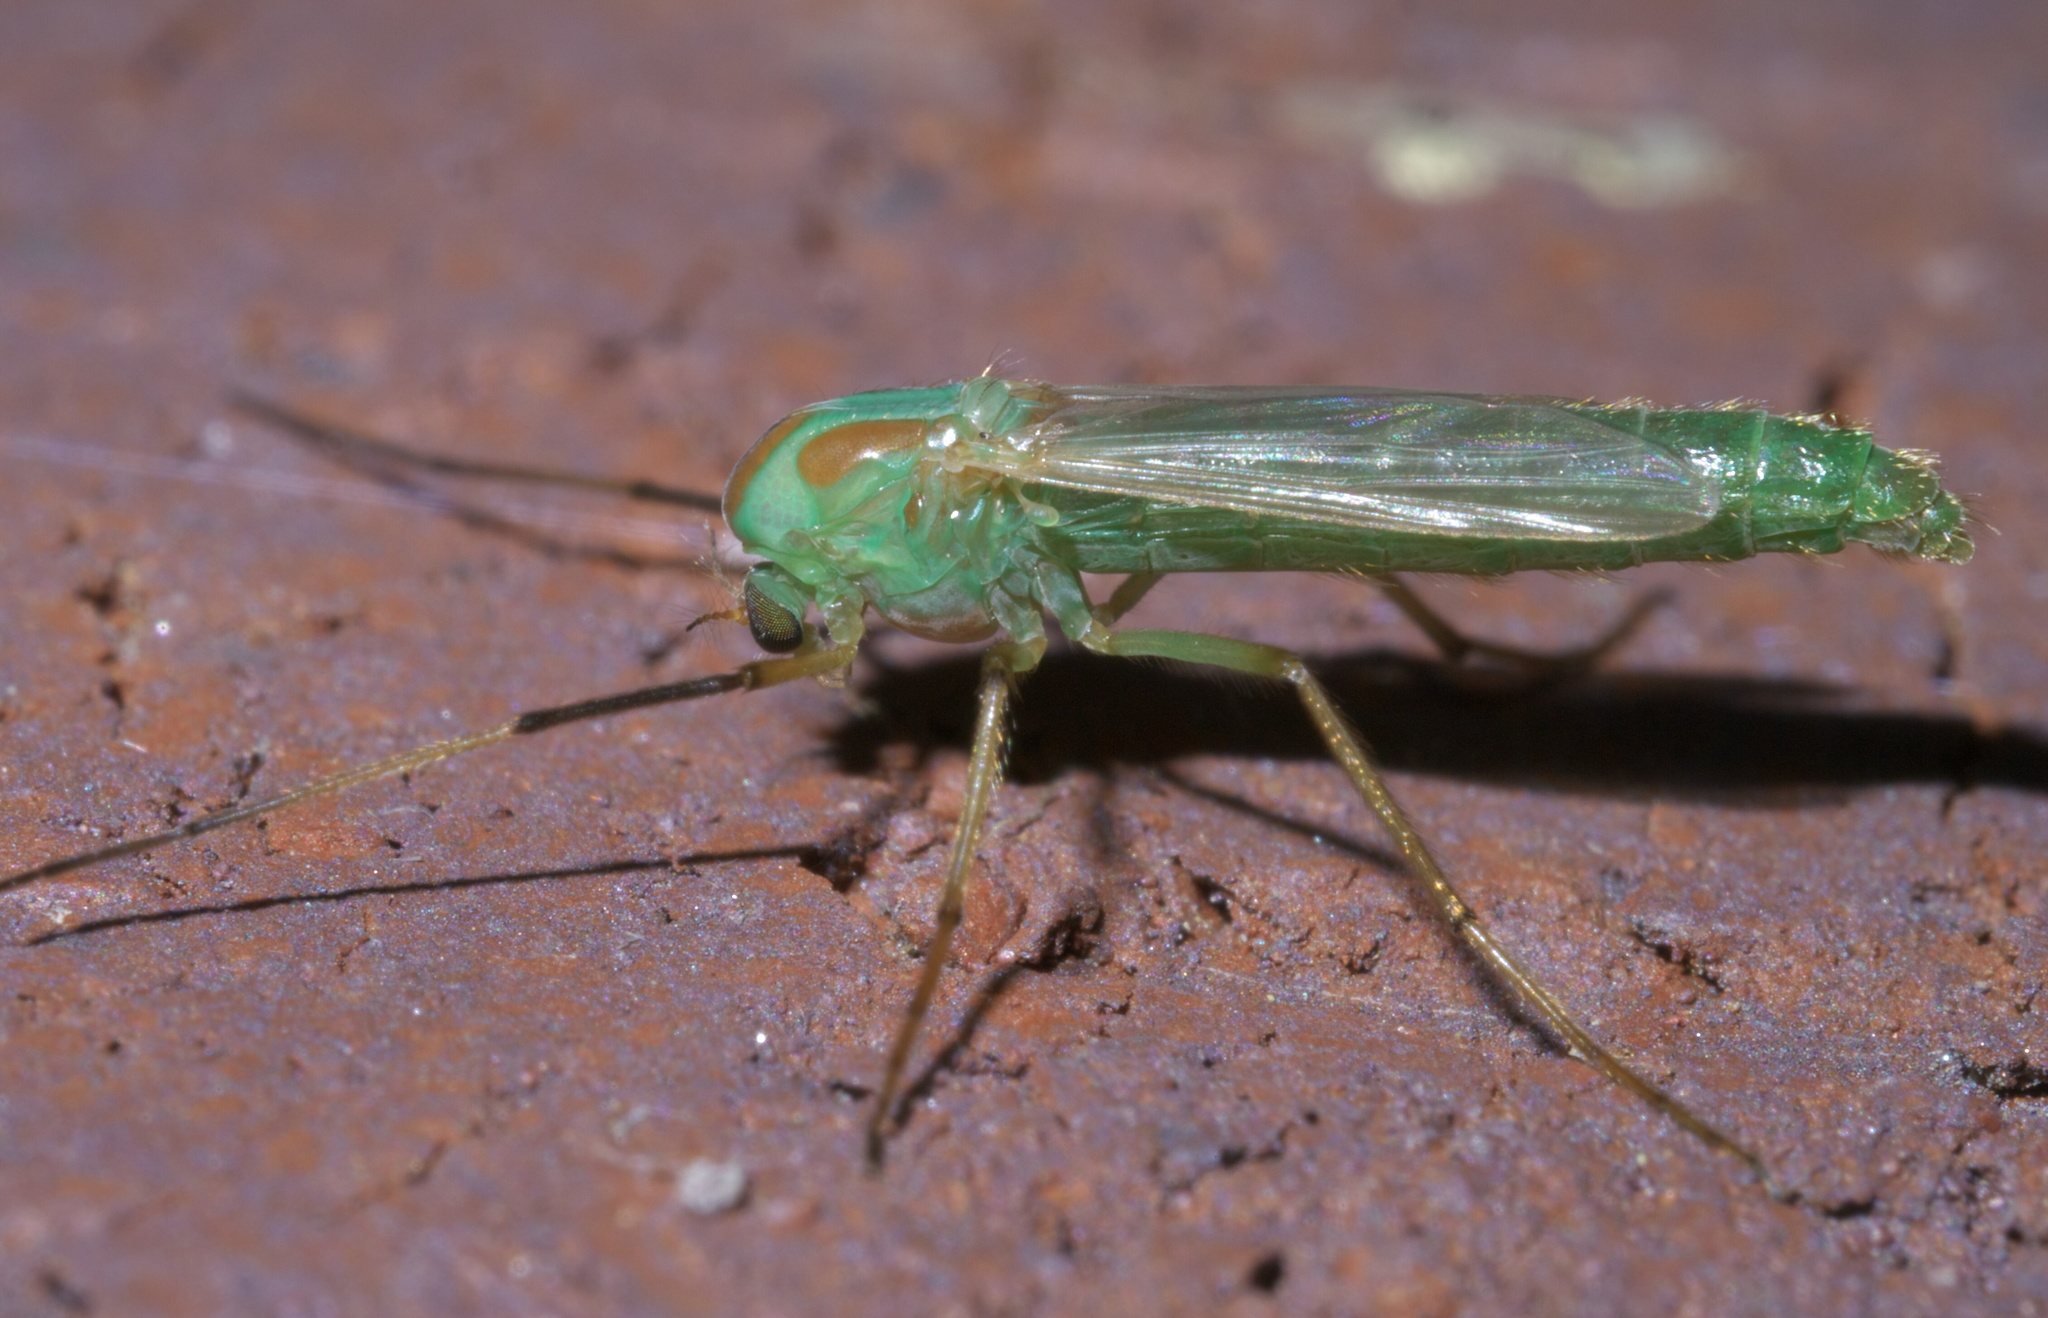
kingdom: Animalia
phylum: Arthropoda
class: Insecta
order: Diptera
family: Chironomidae
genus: Axarus
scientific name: Axarus
